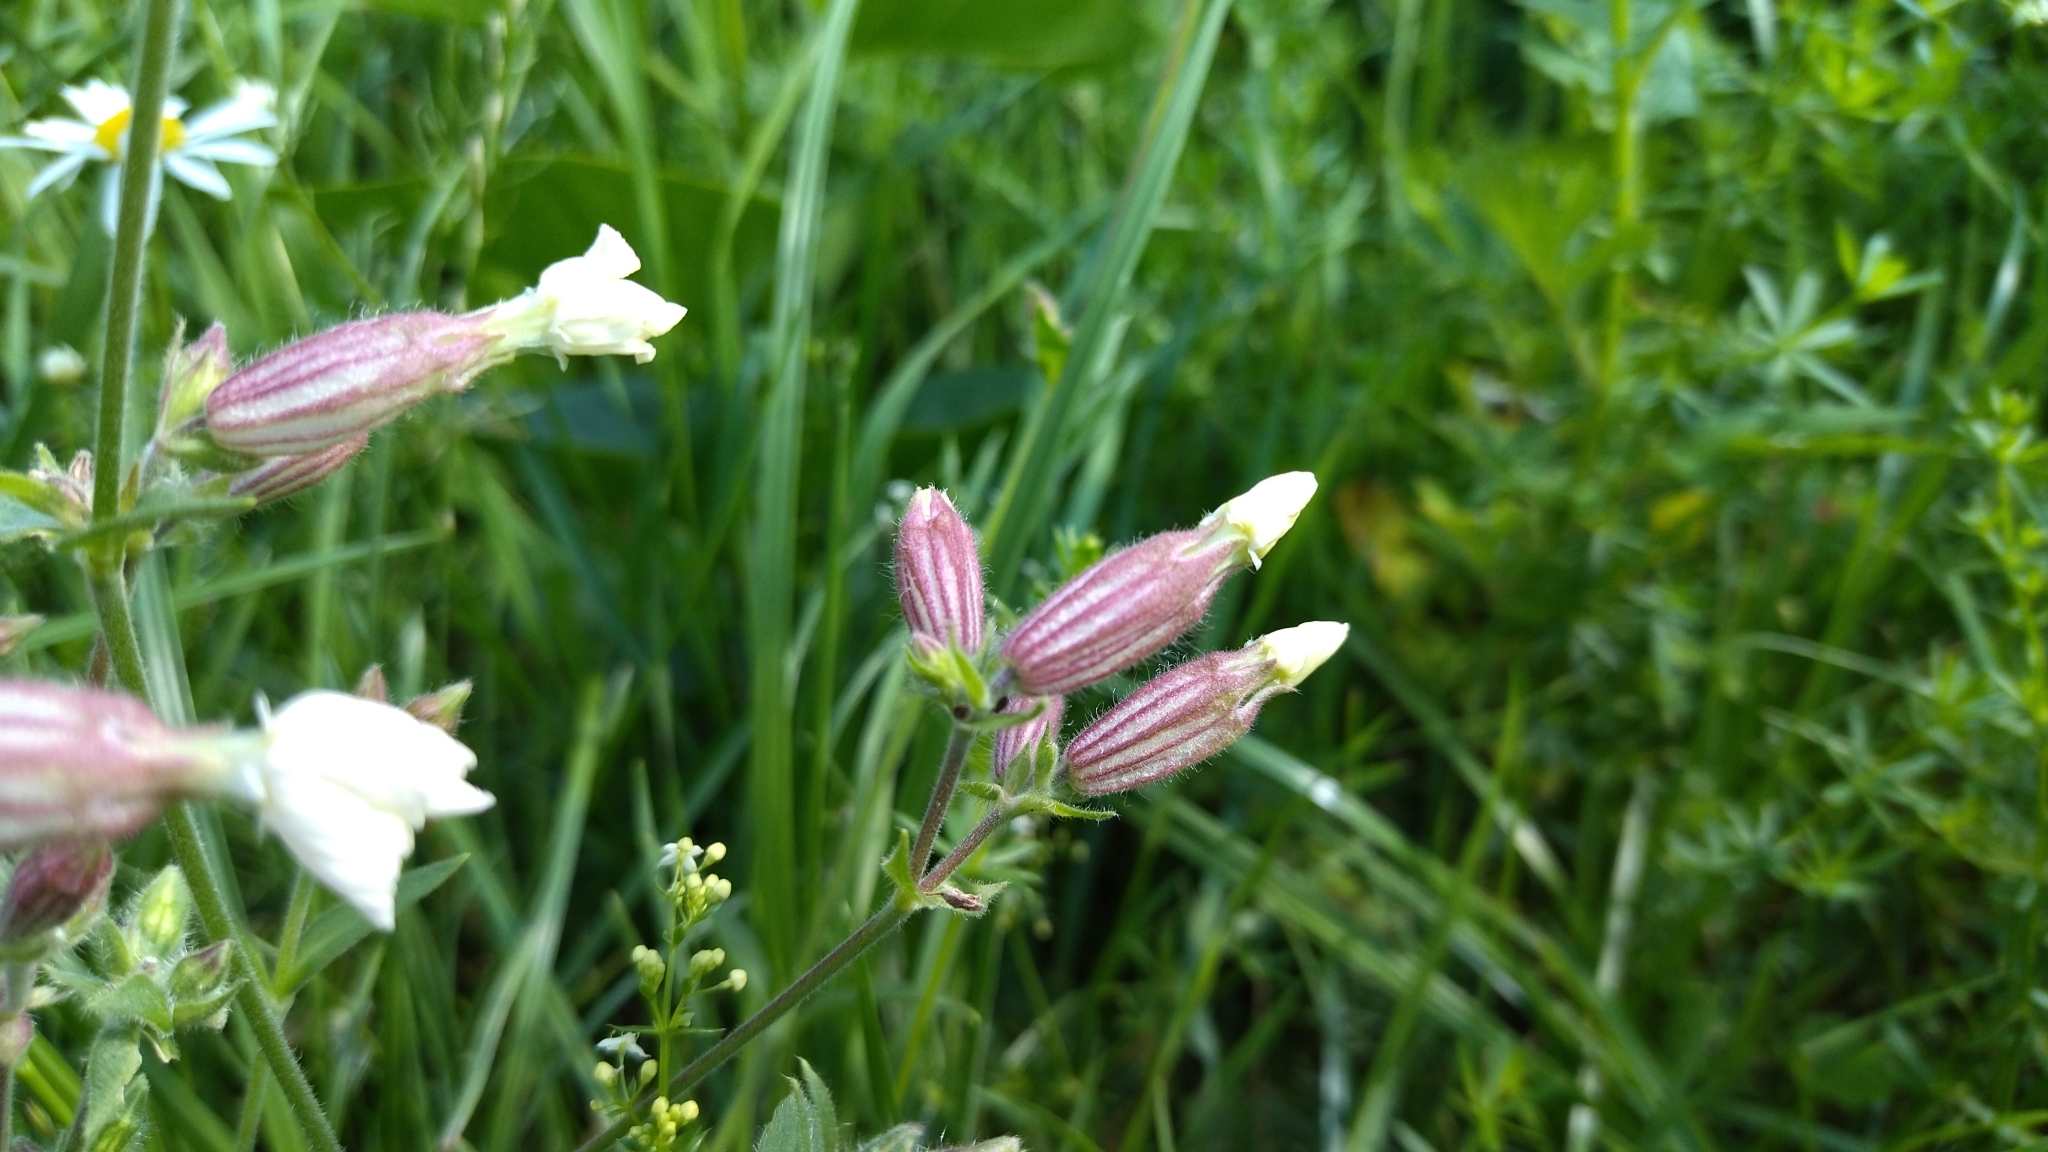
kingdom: Plantae
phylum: Tracheophyta
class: Magnoliopsida
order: Caryophyllales
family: Caryophyllaceae
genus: Silene
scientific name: Silene latifolia
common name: White campion
